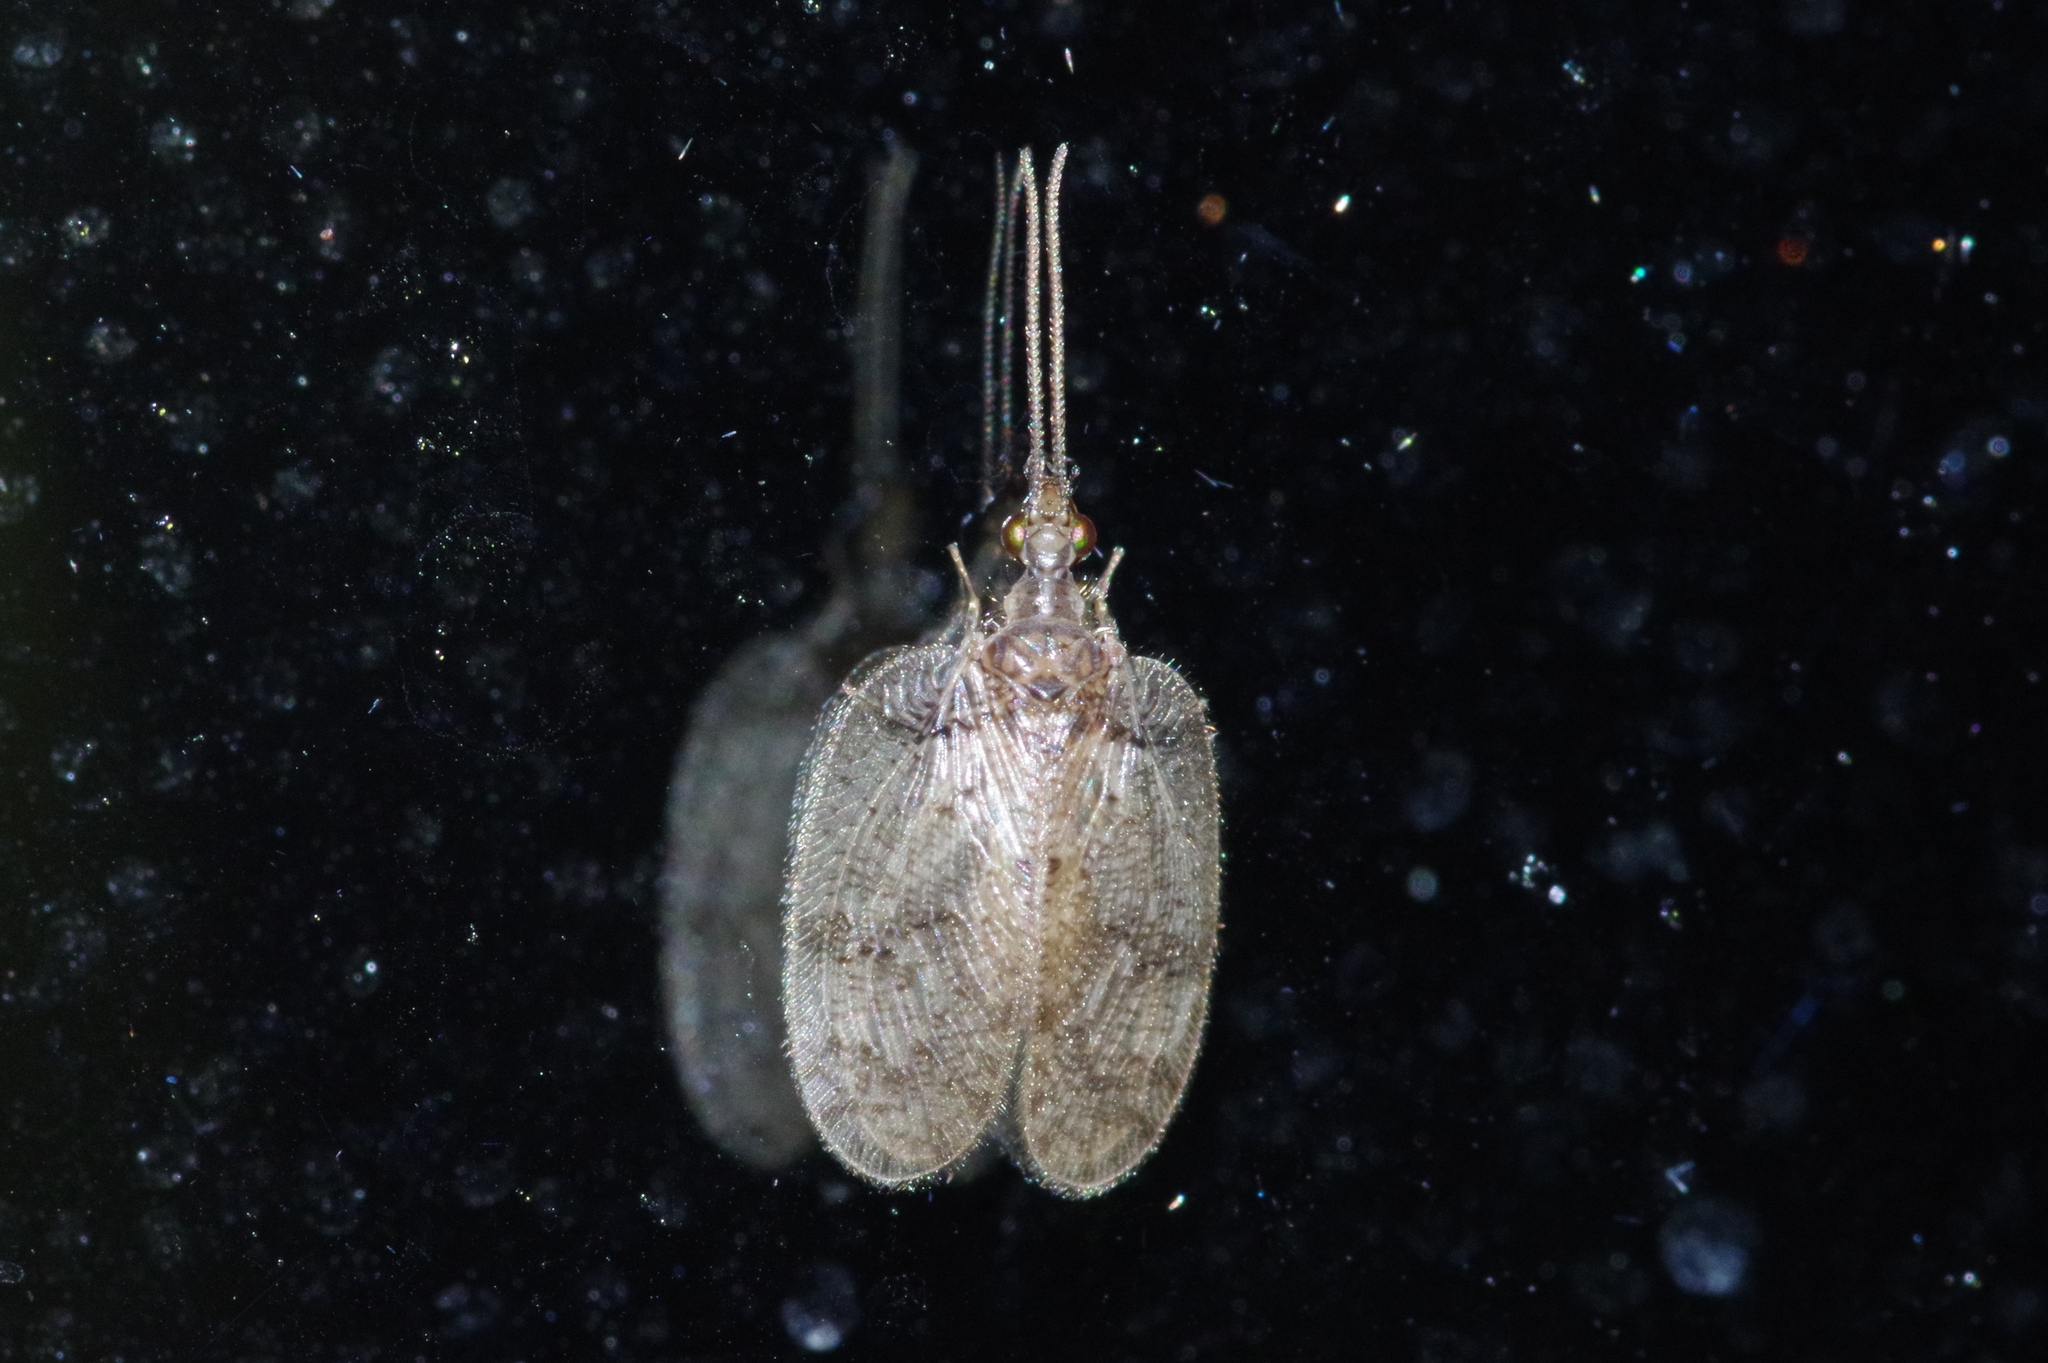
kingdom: Animalia
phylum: Arthropoda
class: Insecta
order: Neuroptera
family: Hemerobiidae
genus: Psectra
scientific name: Psectra iniqua
